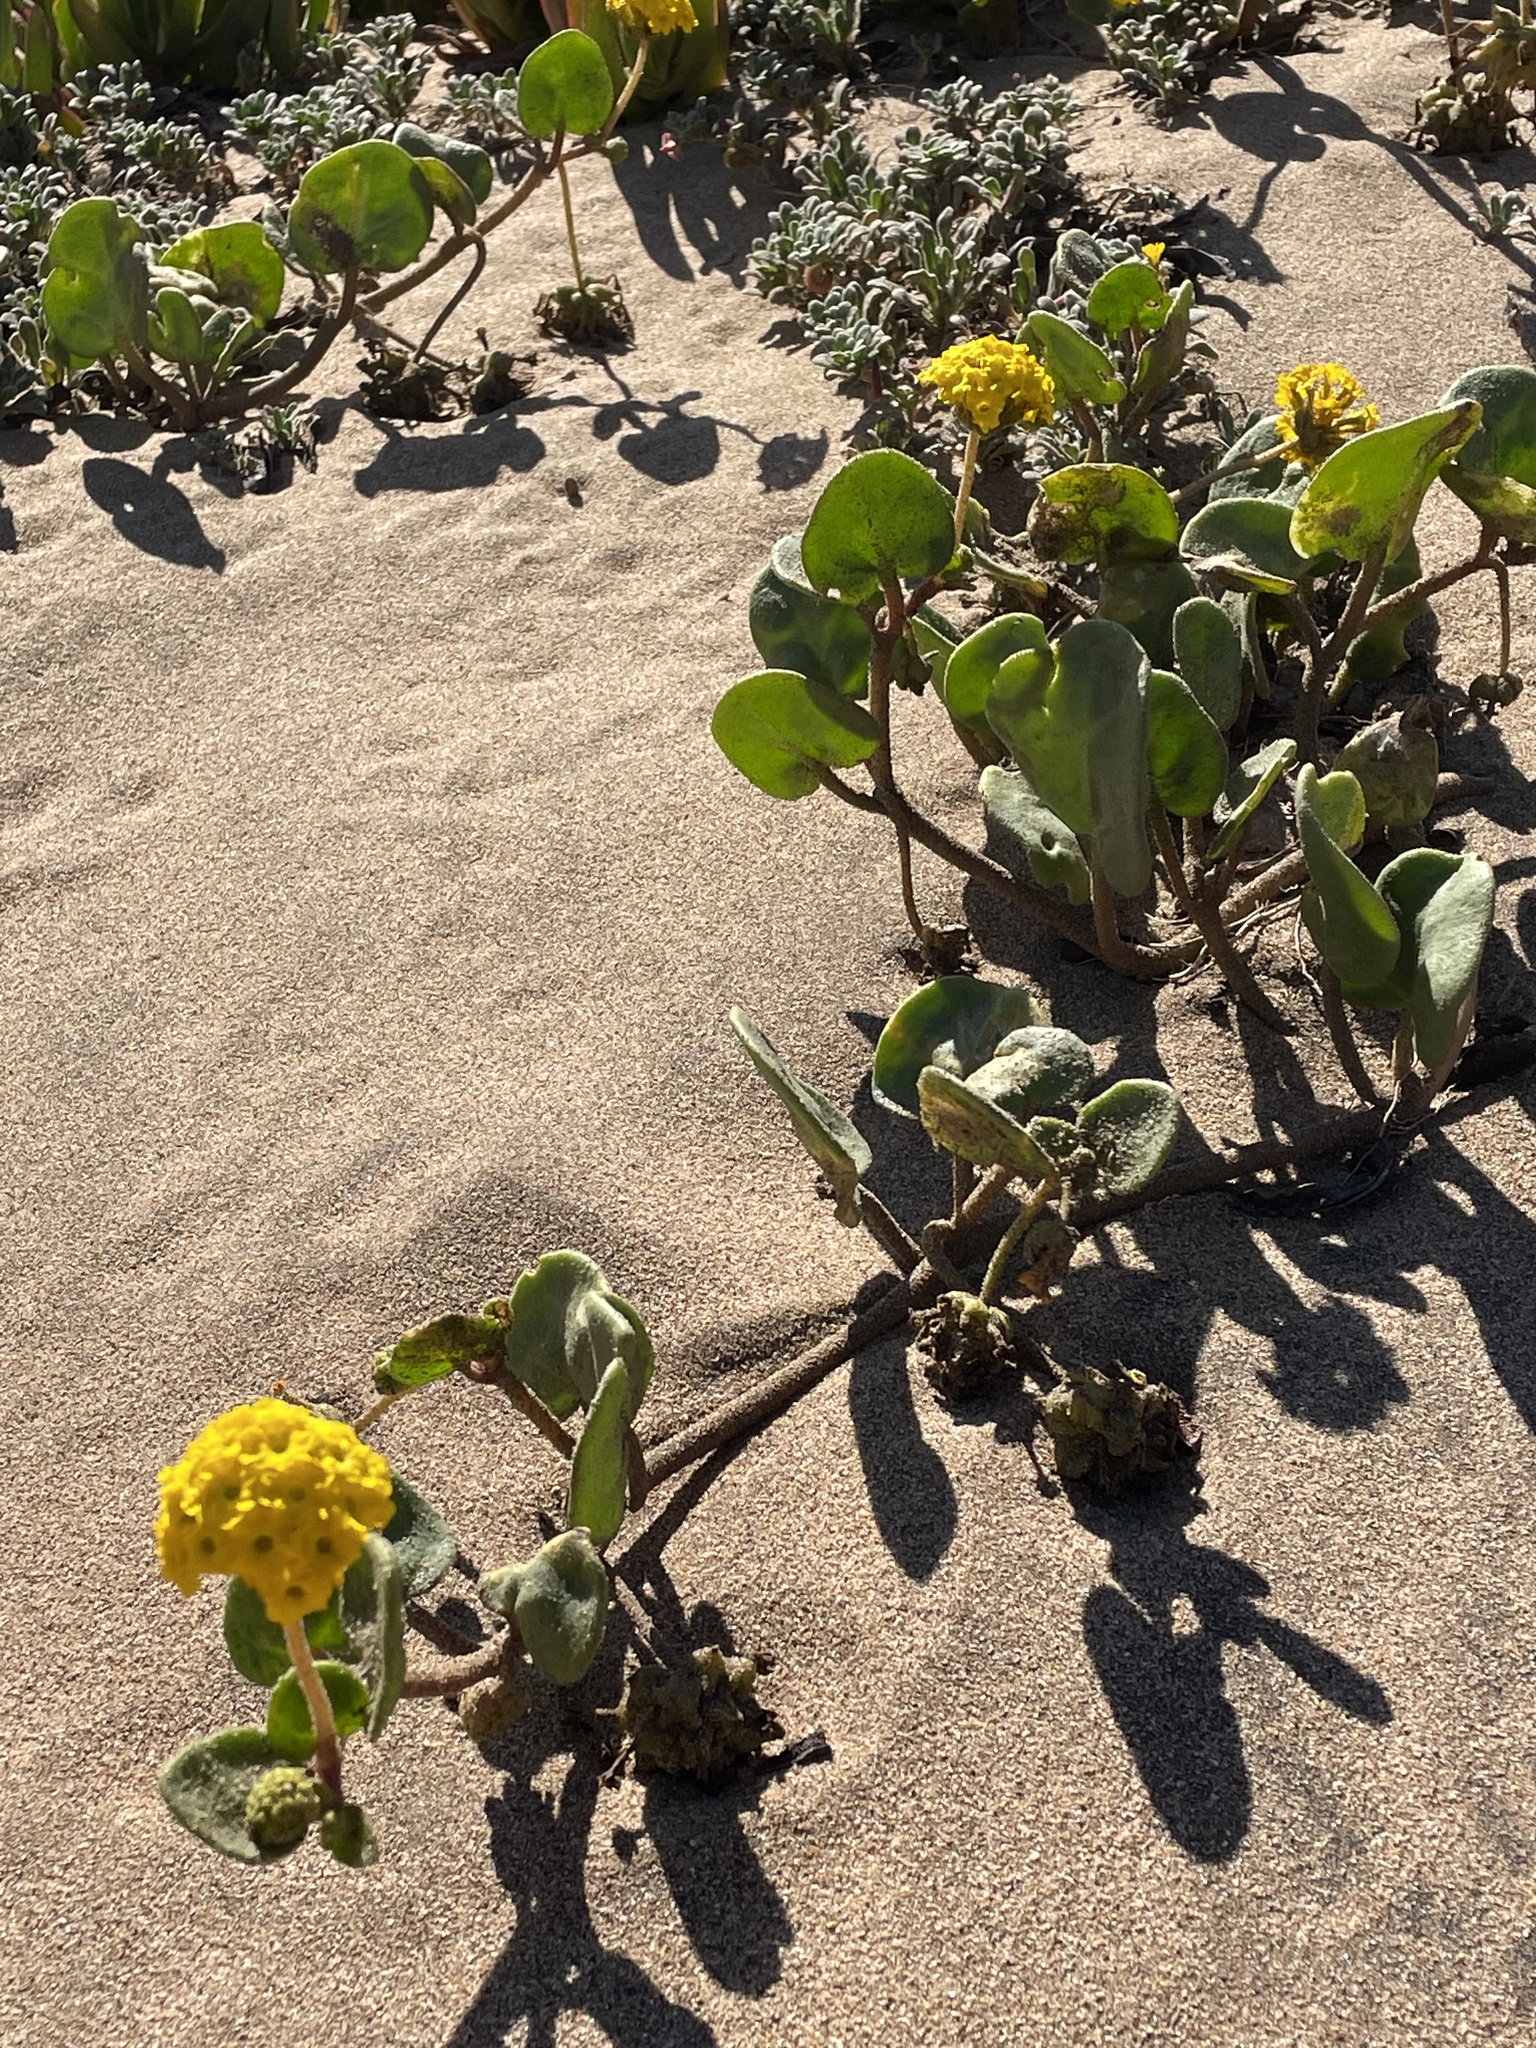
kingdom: Plantae
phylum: Tracheophyta
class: Magnoliopsida
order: Caryophyllales
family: Nyctaginaceae
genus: Abronia
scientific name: Abronia latifolia
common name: Yellow sand-verbena
